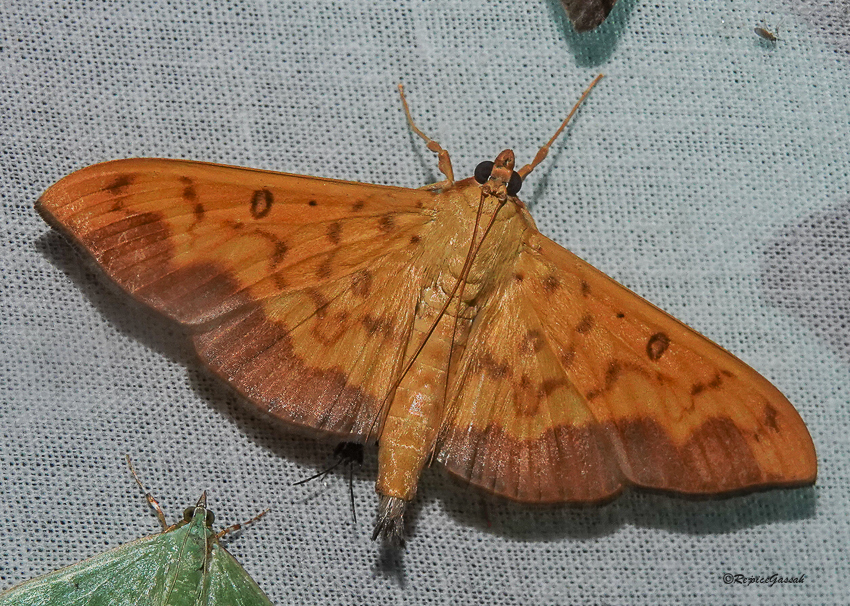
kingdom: Animalia
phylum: Arthropoda
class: Insecta
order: Lepidoptera
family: Crambidae
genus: Botyodes
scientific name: Botyodes asialis
